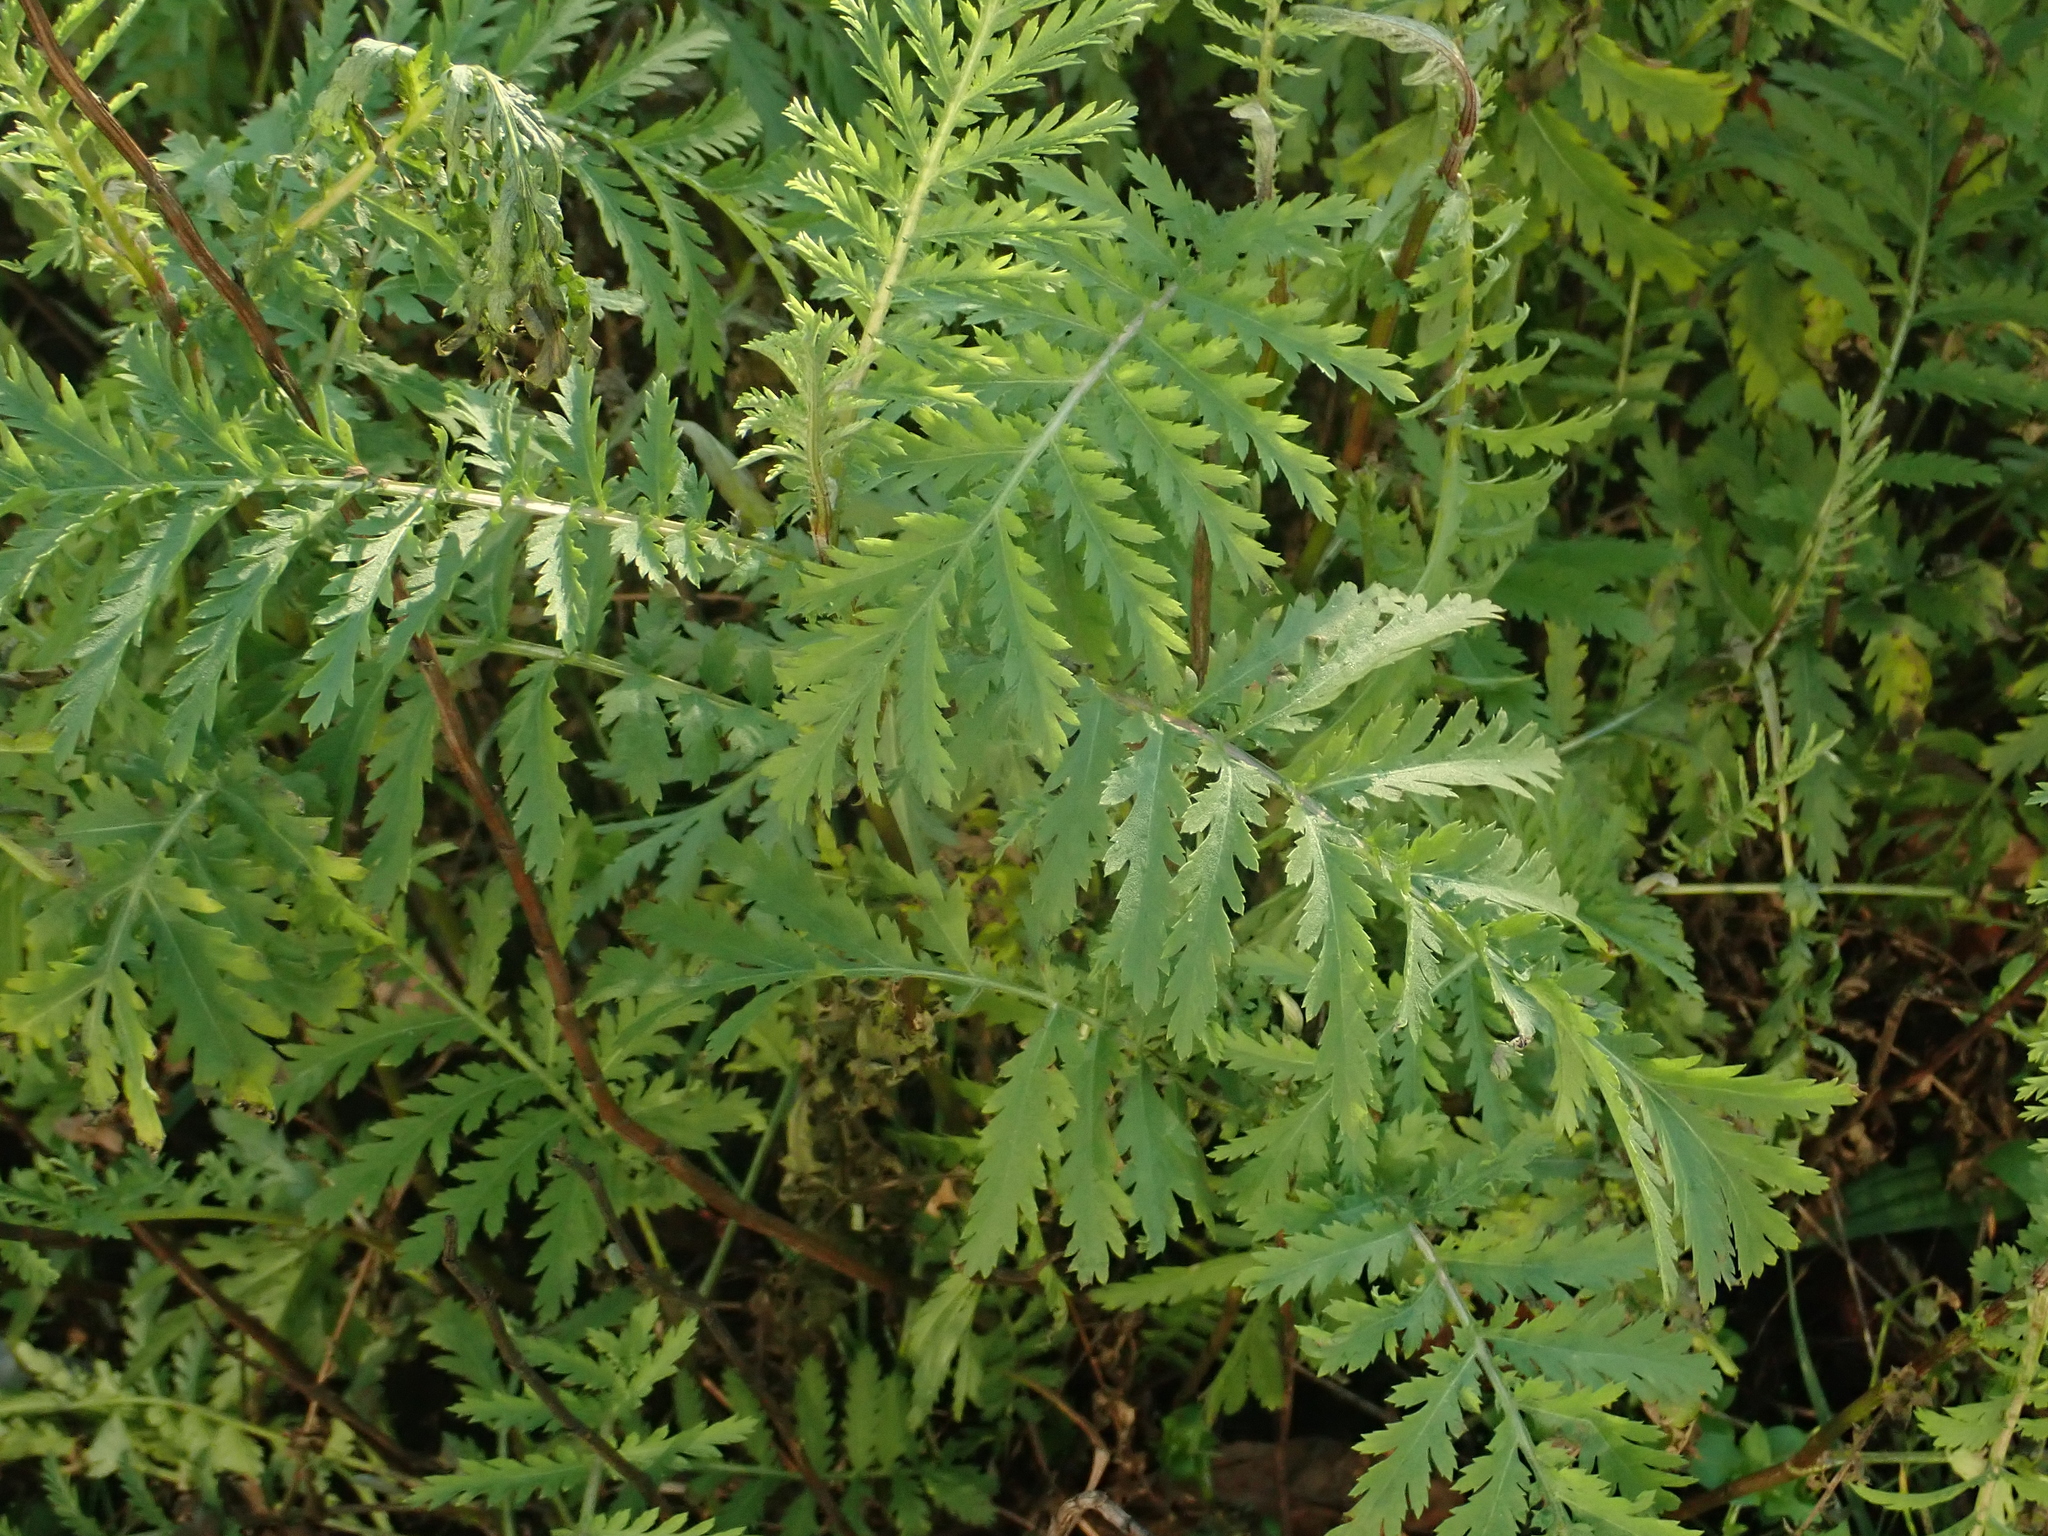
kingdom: Plantae
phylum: Tracheophyta
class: Magnoliopsida
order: Asterales
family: Asteraceae
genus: Tanacetum
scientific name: Tanacetum vulgare
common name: Common tansy
